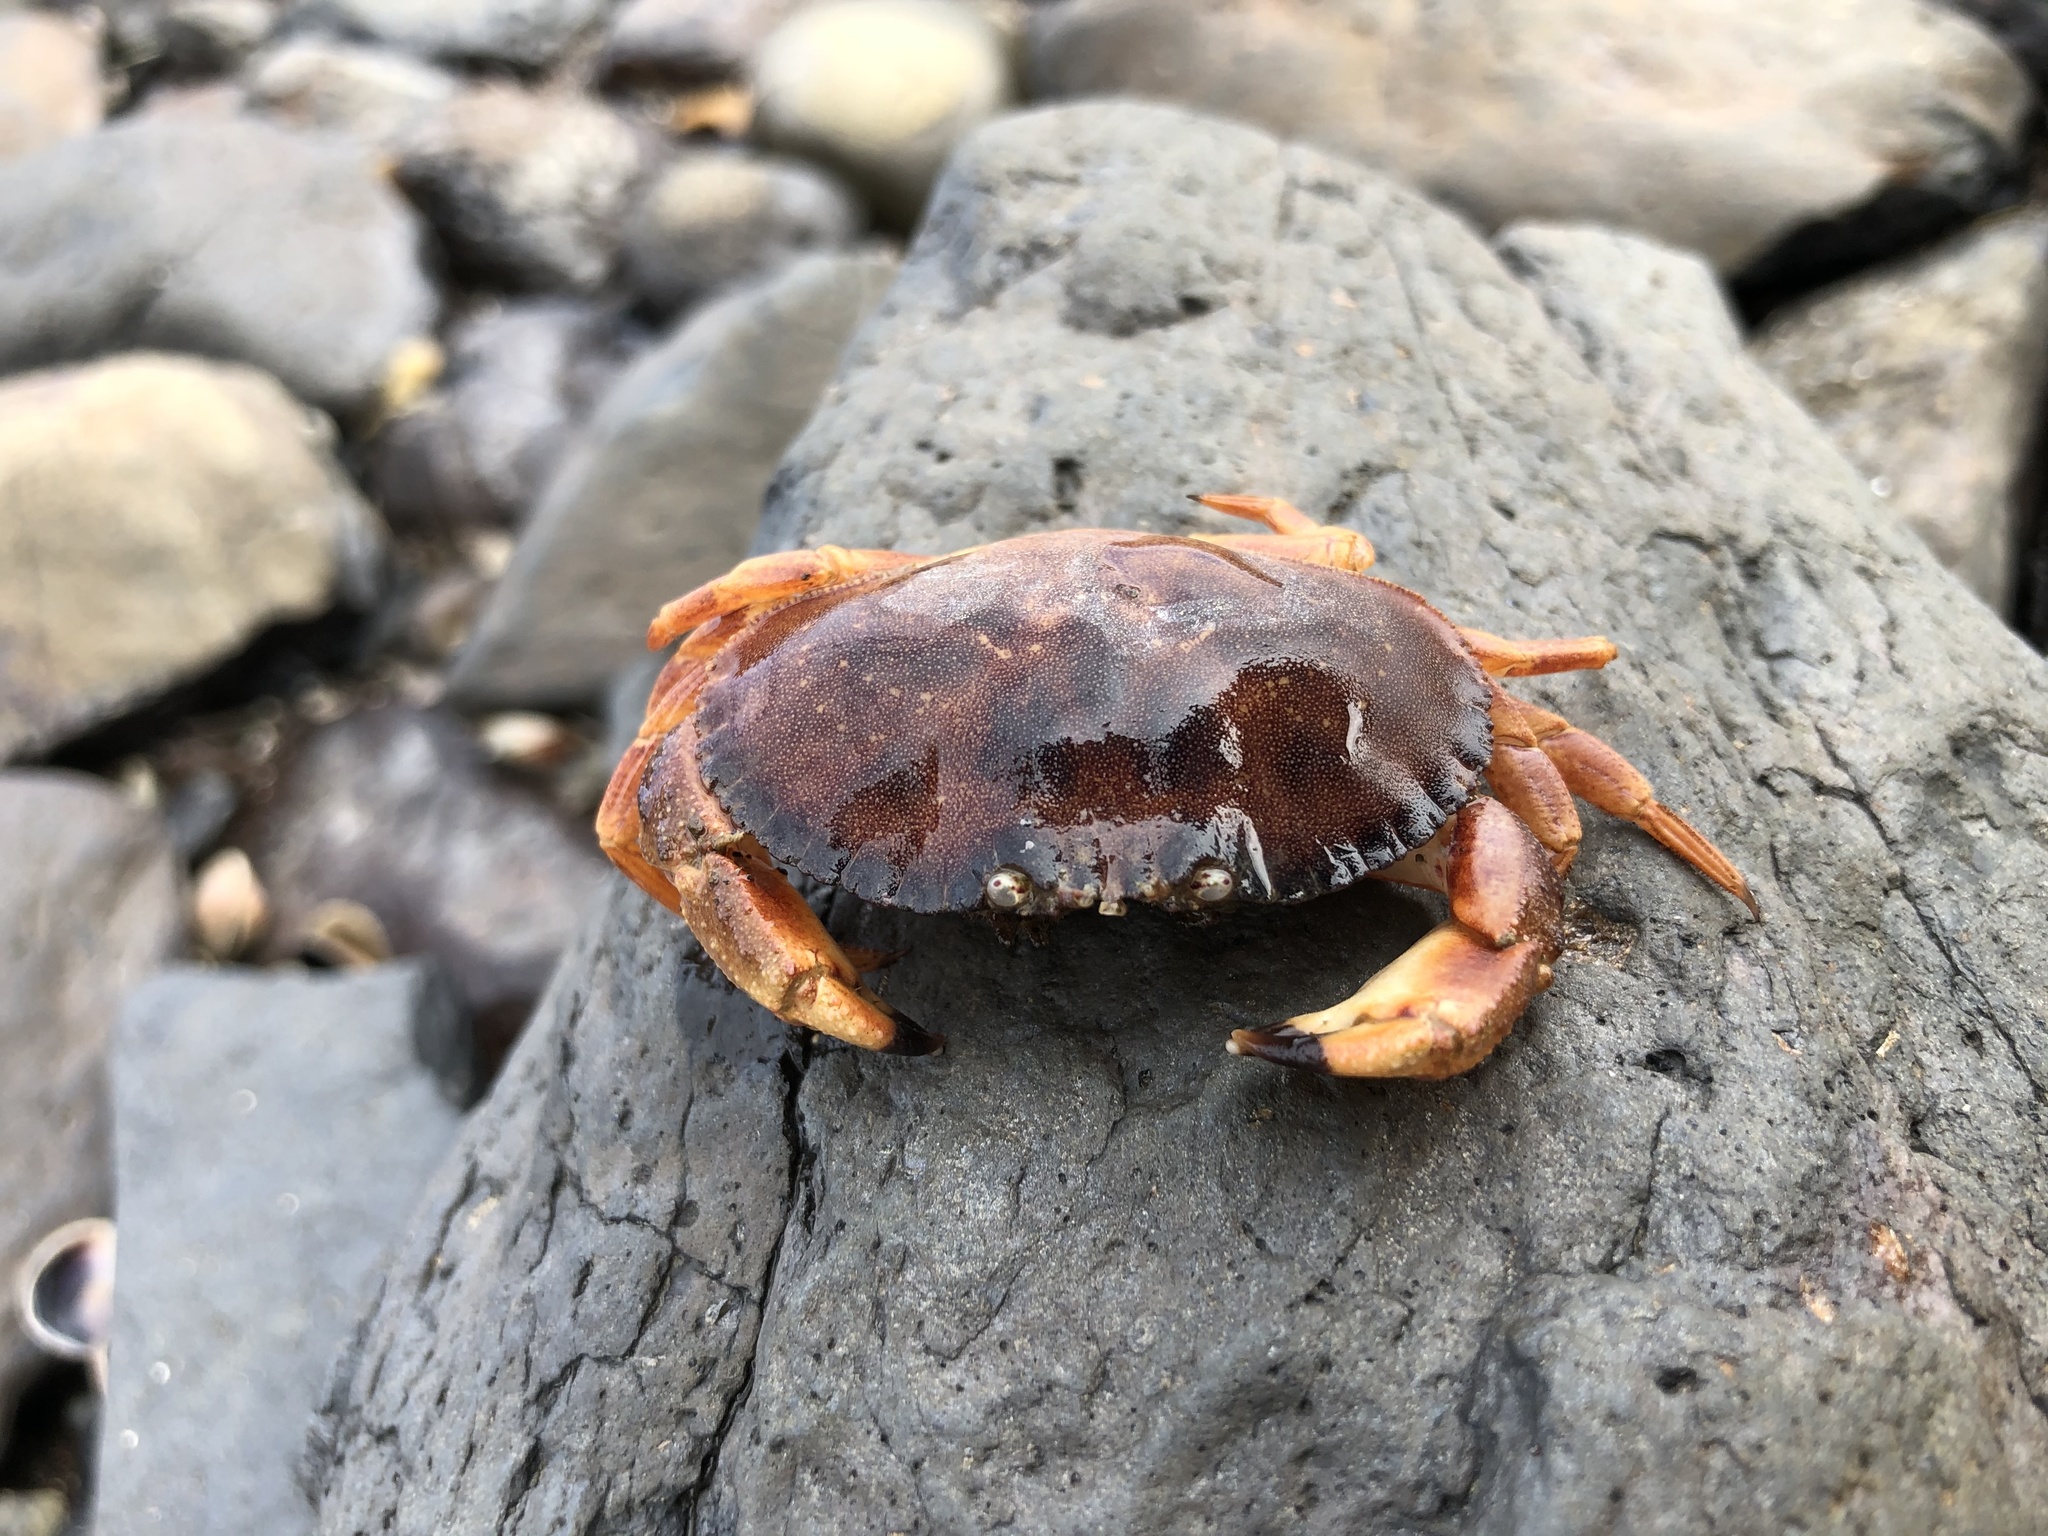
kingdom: Animalia
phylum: Arthropoda
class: Malacostraca
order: Decapoda
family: Cancridae
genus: Metacarcinus
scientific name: Metacarcinus novaezelandiae
